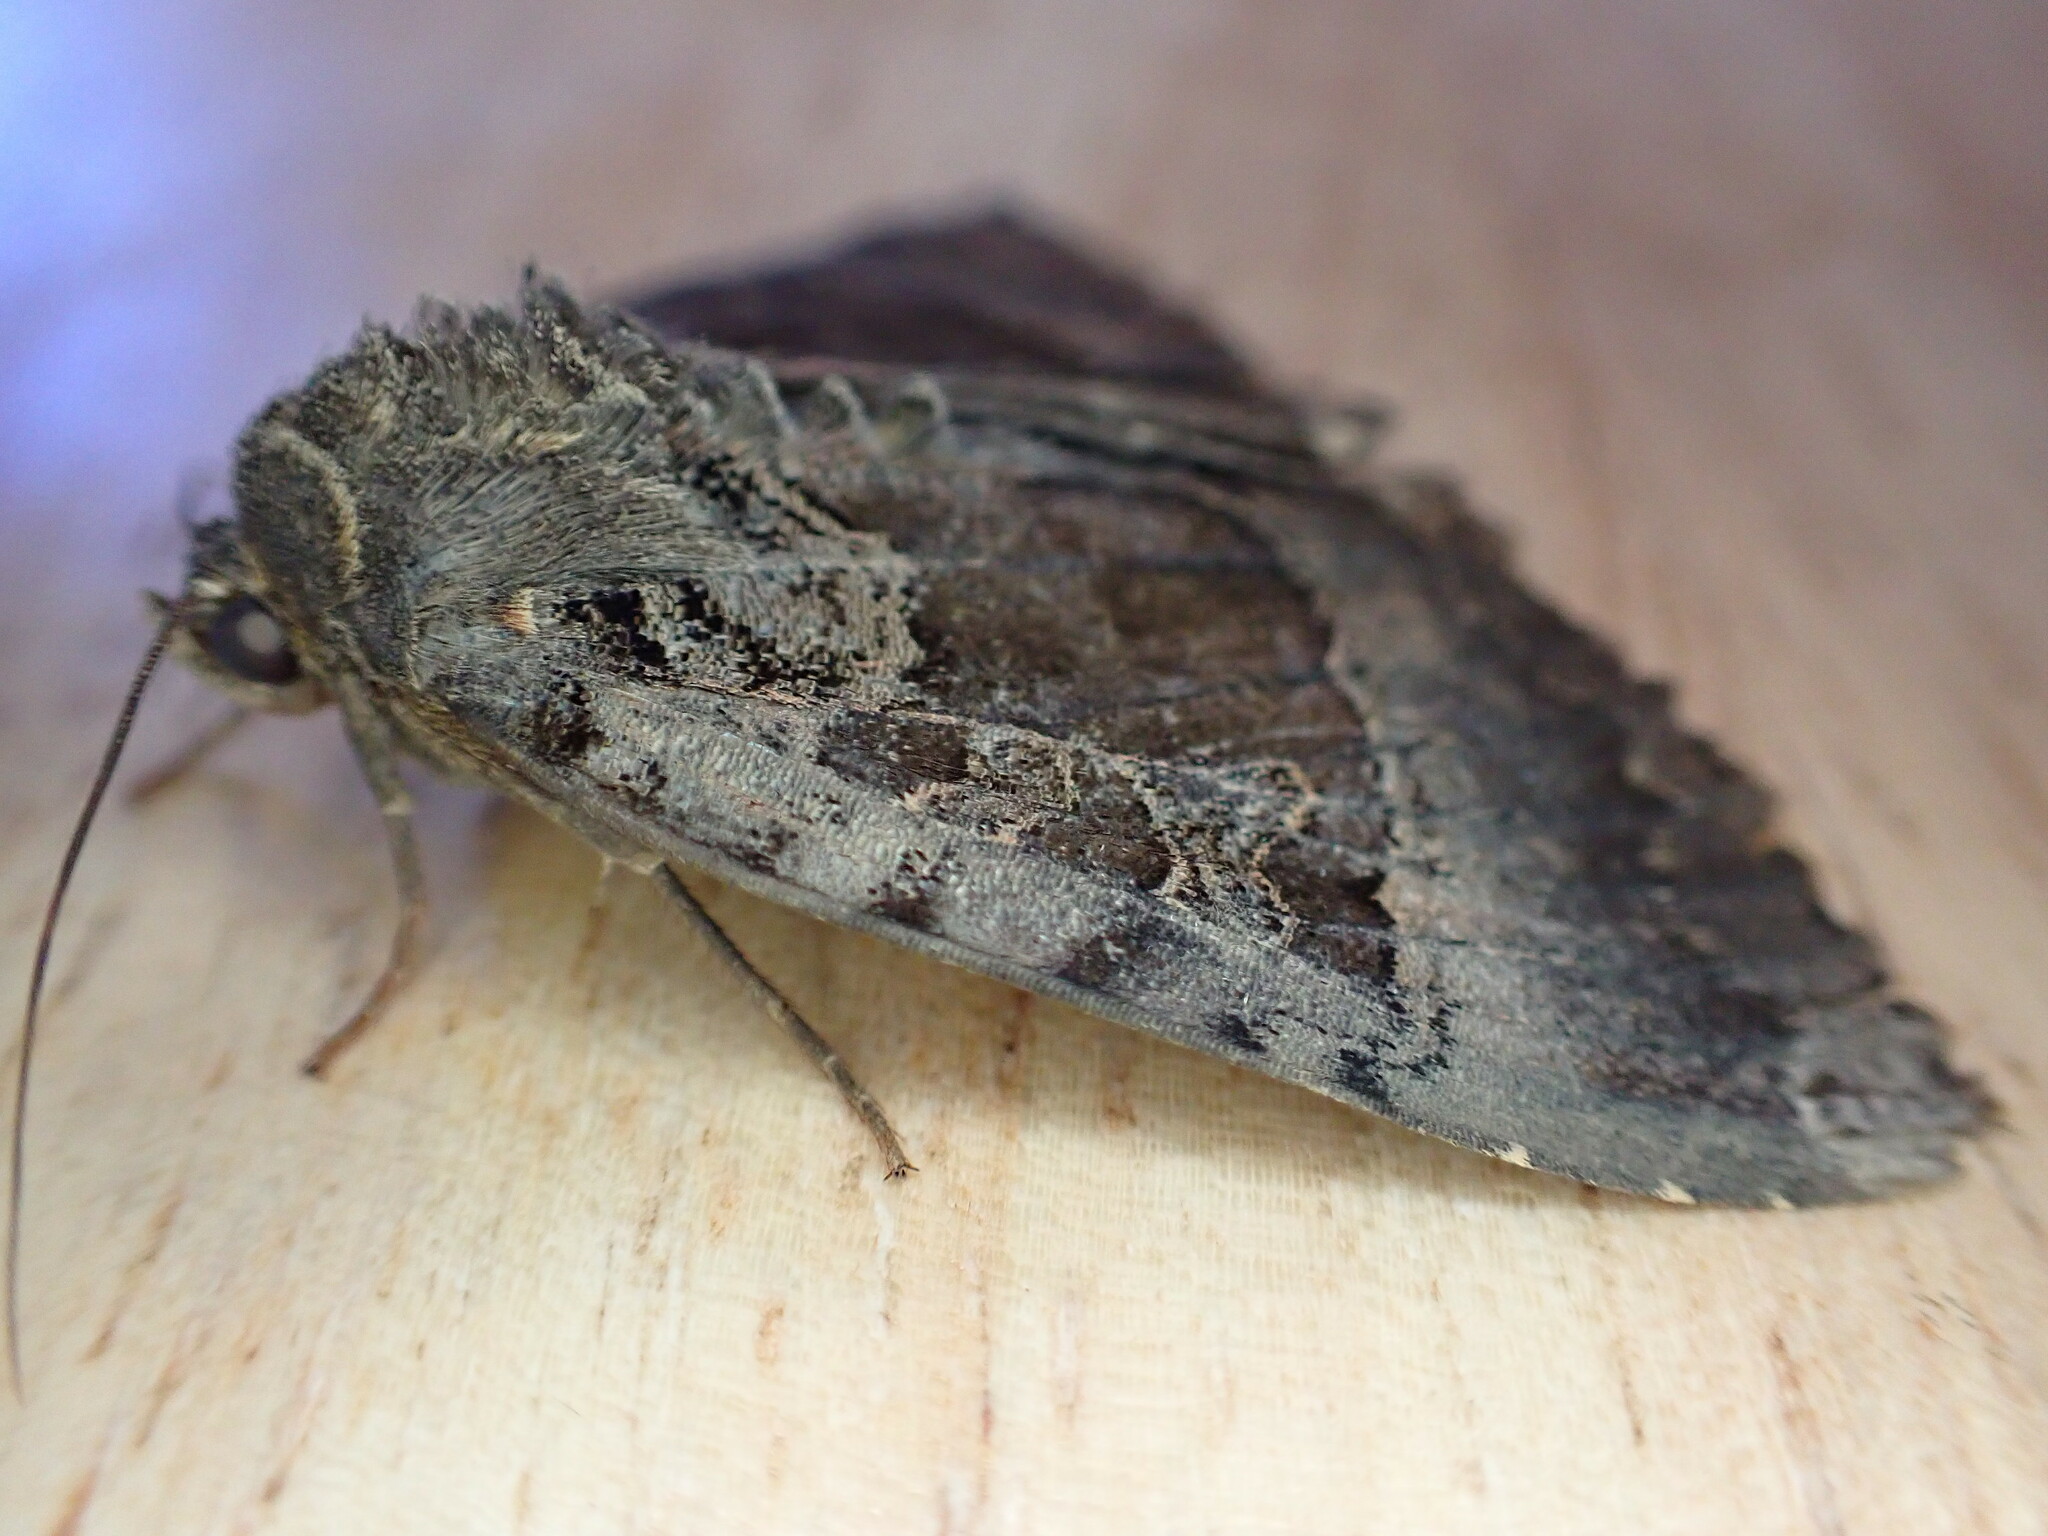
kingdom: Animalia
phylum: Arthropoda
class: Insecta
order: Lepidoptera
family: Noctuidae
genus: Mormo
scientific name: Mormo maura
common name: Old lady
